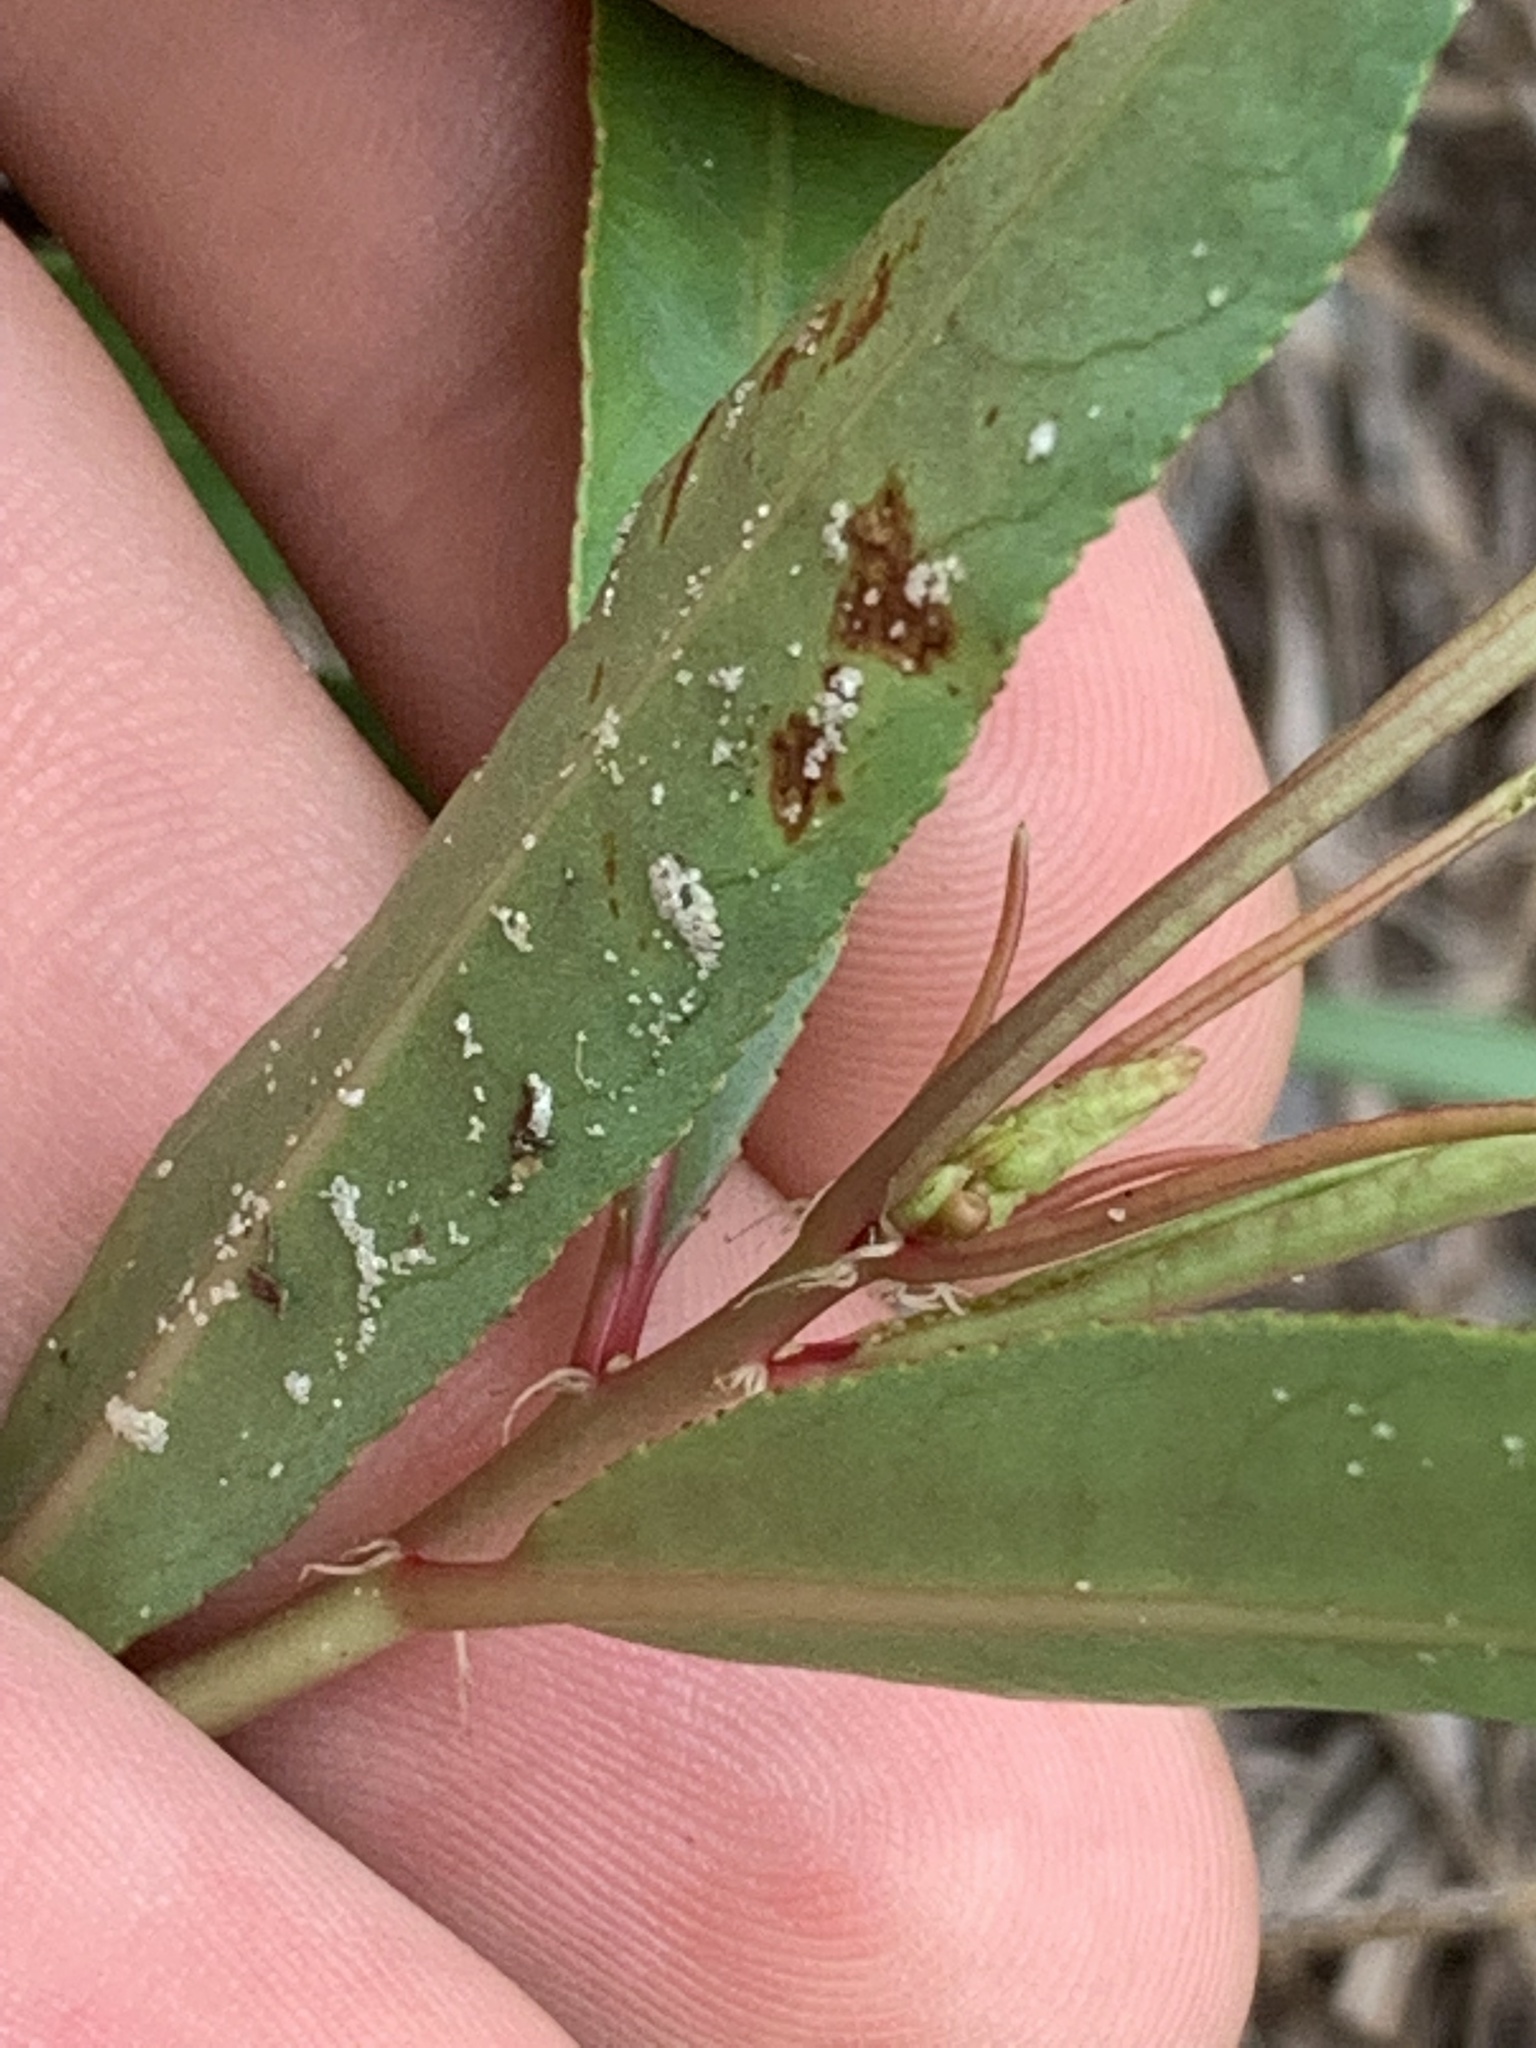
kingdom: Plantae
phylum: Tracheophyta
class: Magnoliopsida
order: Malpighiales
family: Euphorbiaceae
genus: Stillingia
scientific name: Stillingia sylvatica
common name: Queen's-delight
